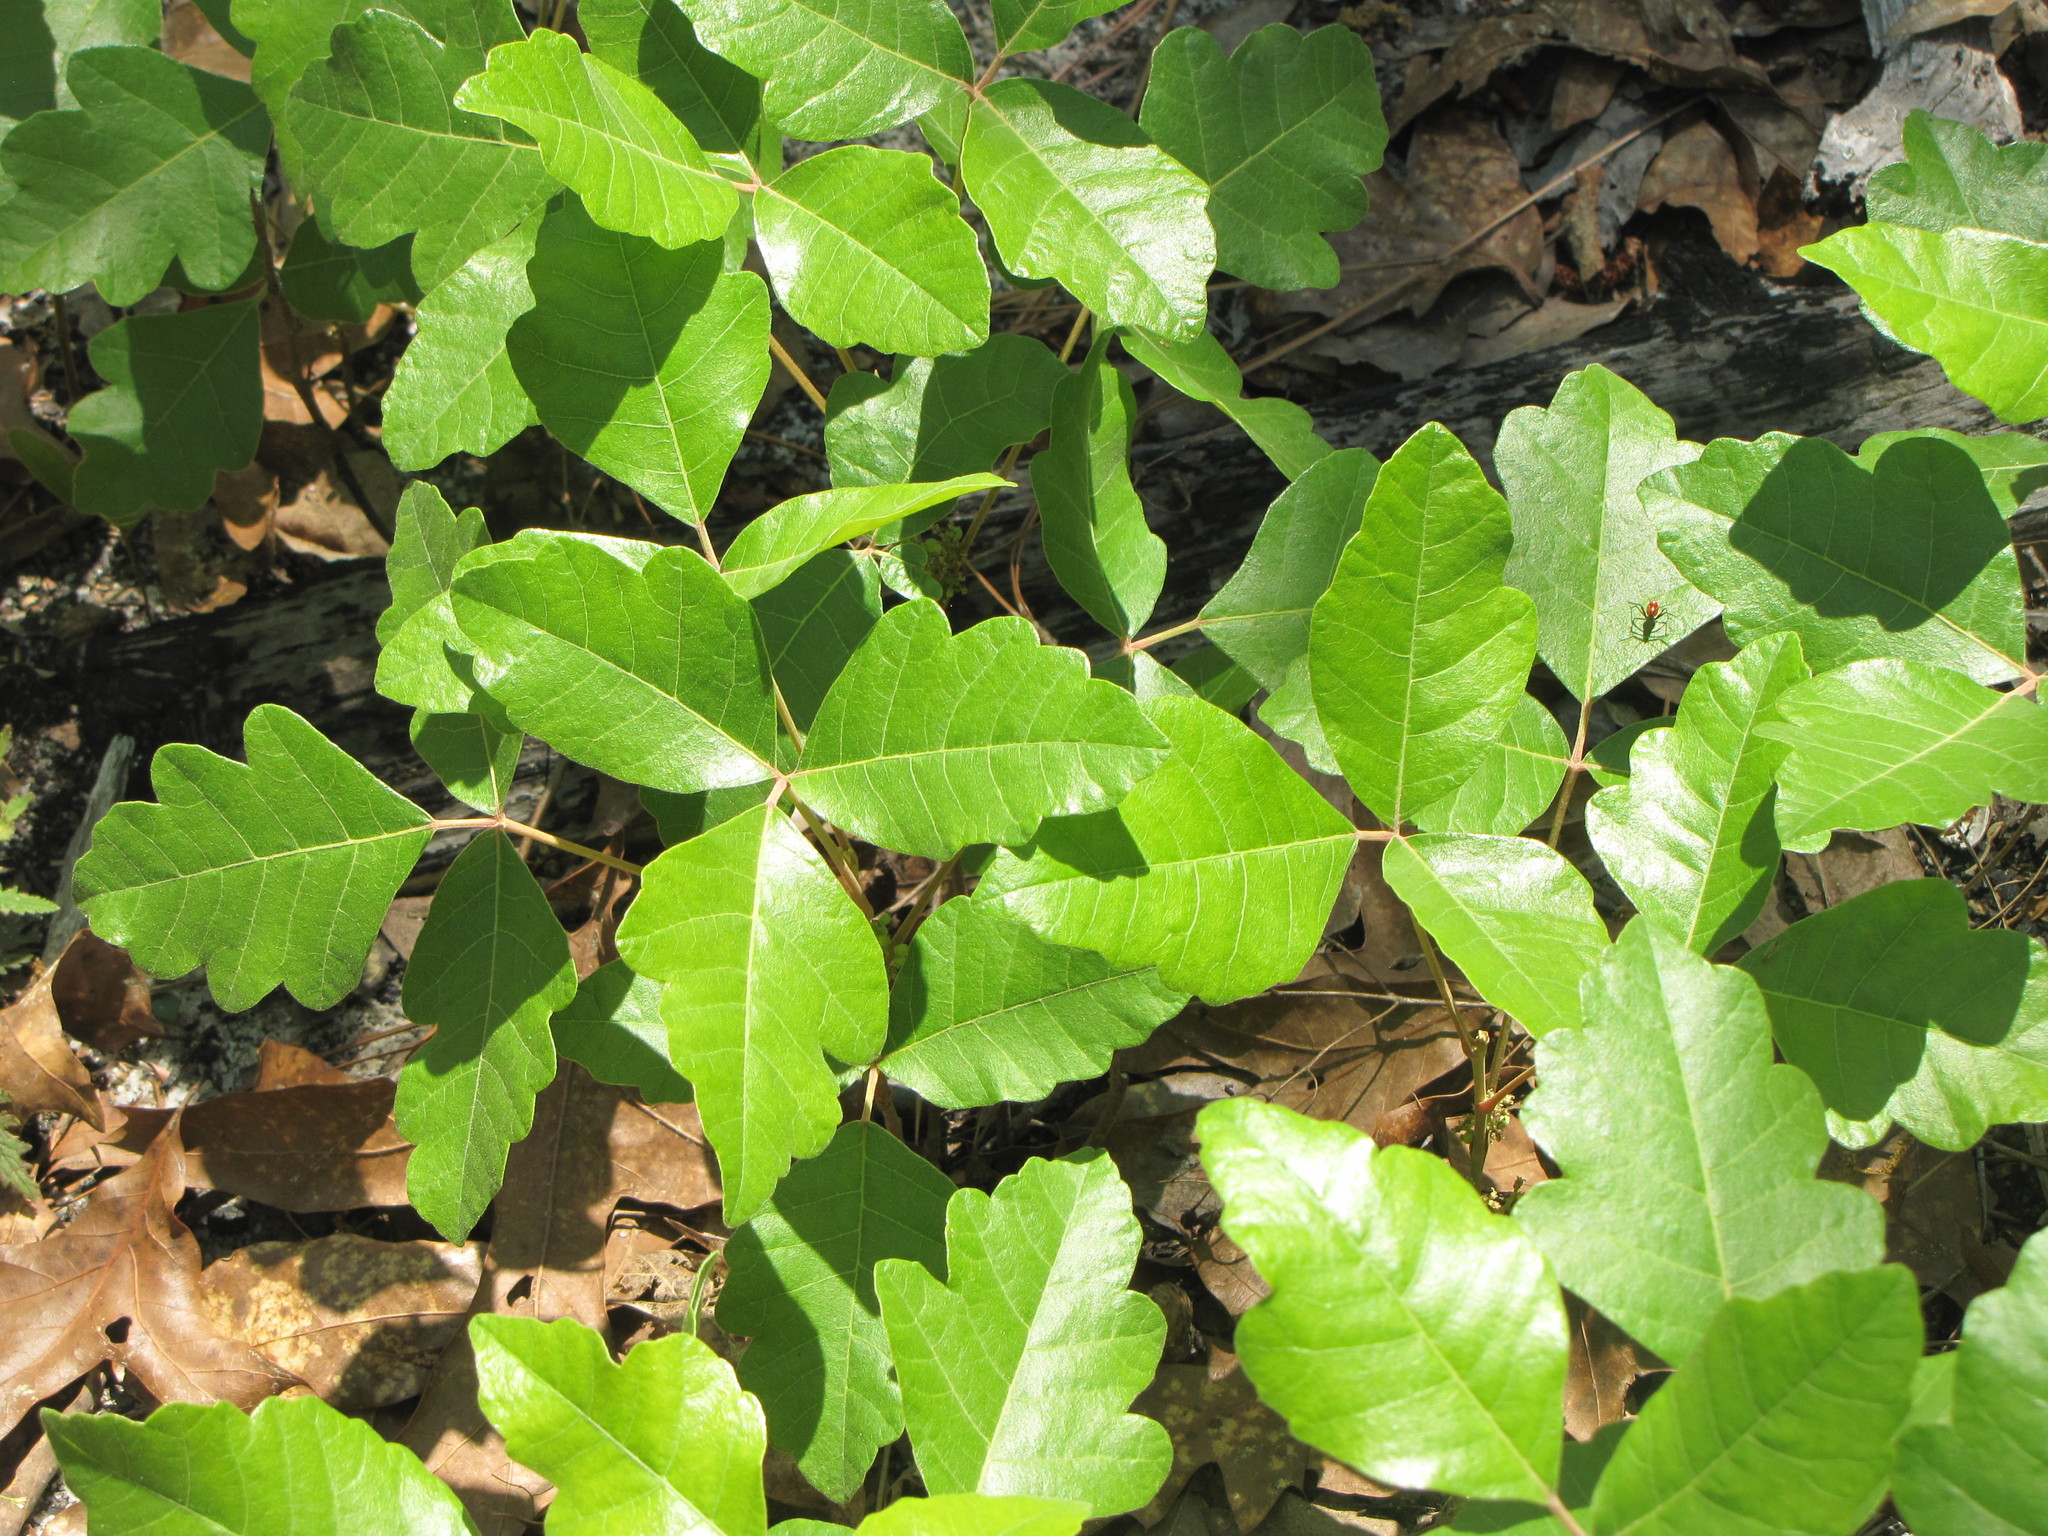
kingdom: Plantae
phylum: Tracheophyta
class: Magnoliopsida
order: Sapindales
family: Anacardiaceae
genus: Toxicodendron
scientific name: Toxicodendron pubescens
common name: Eastern poison-oak
